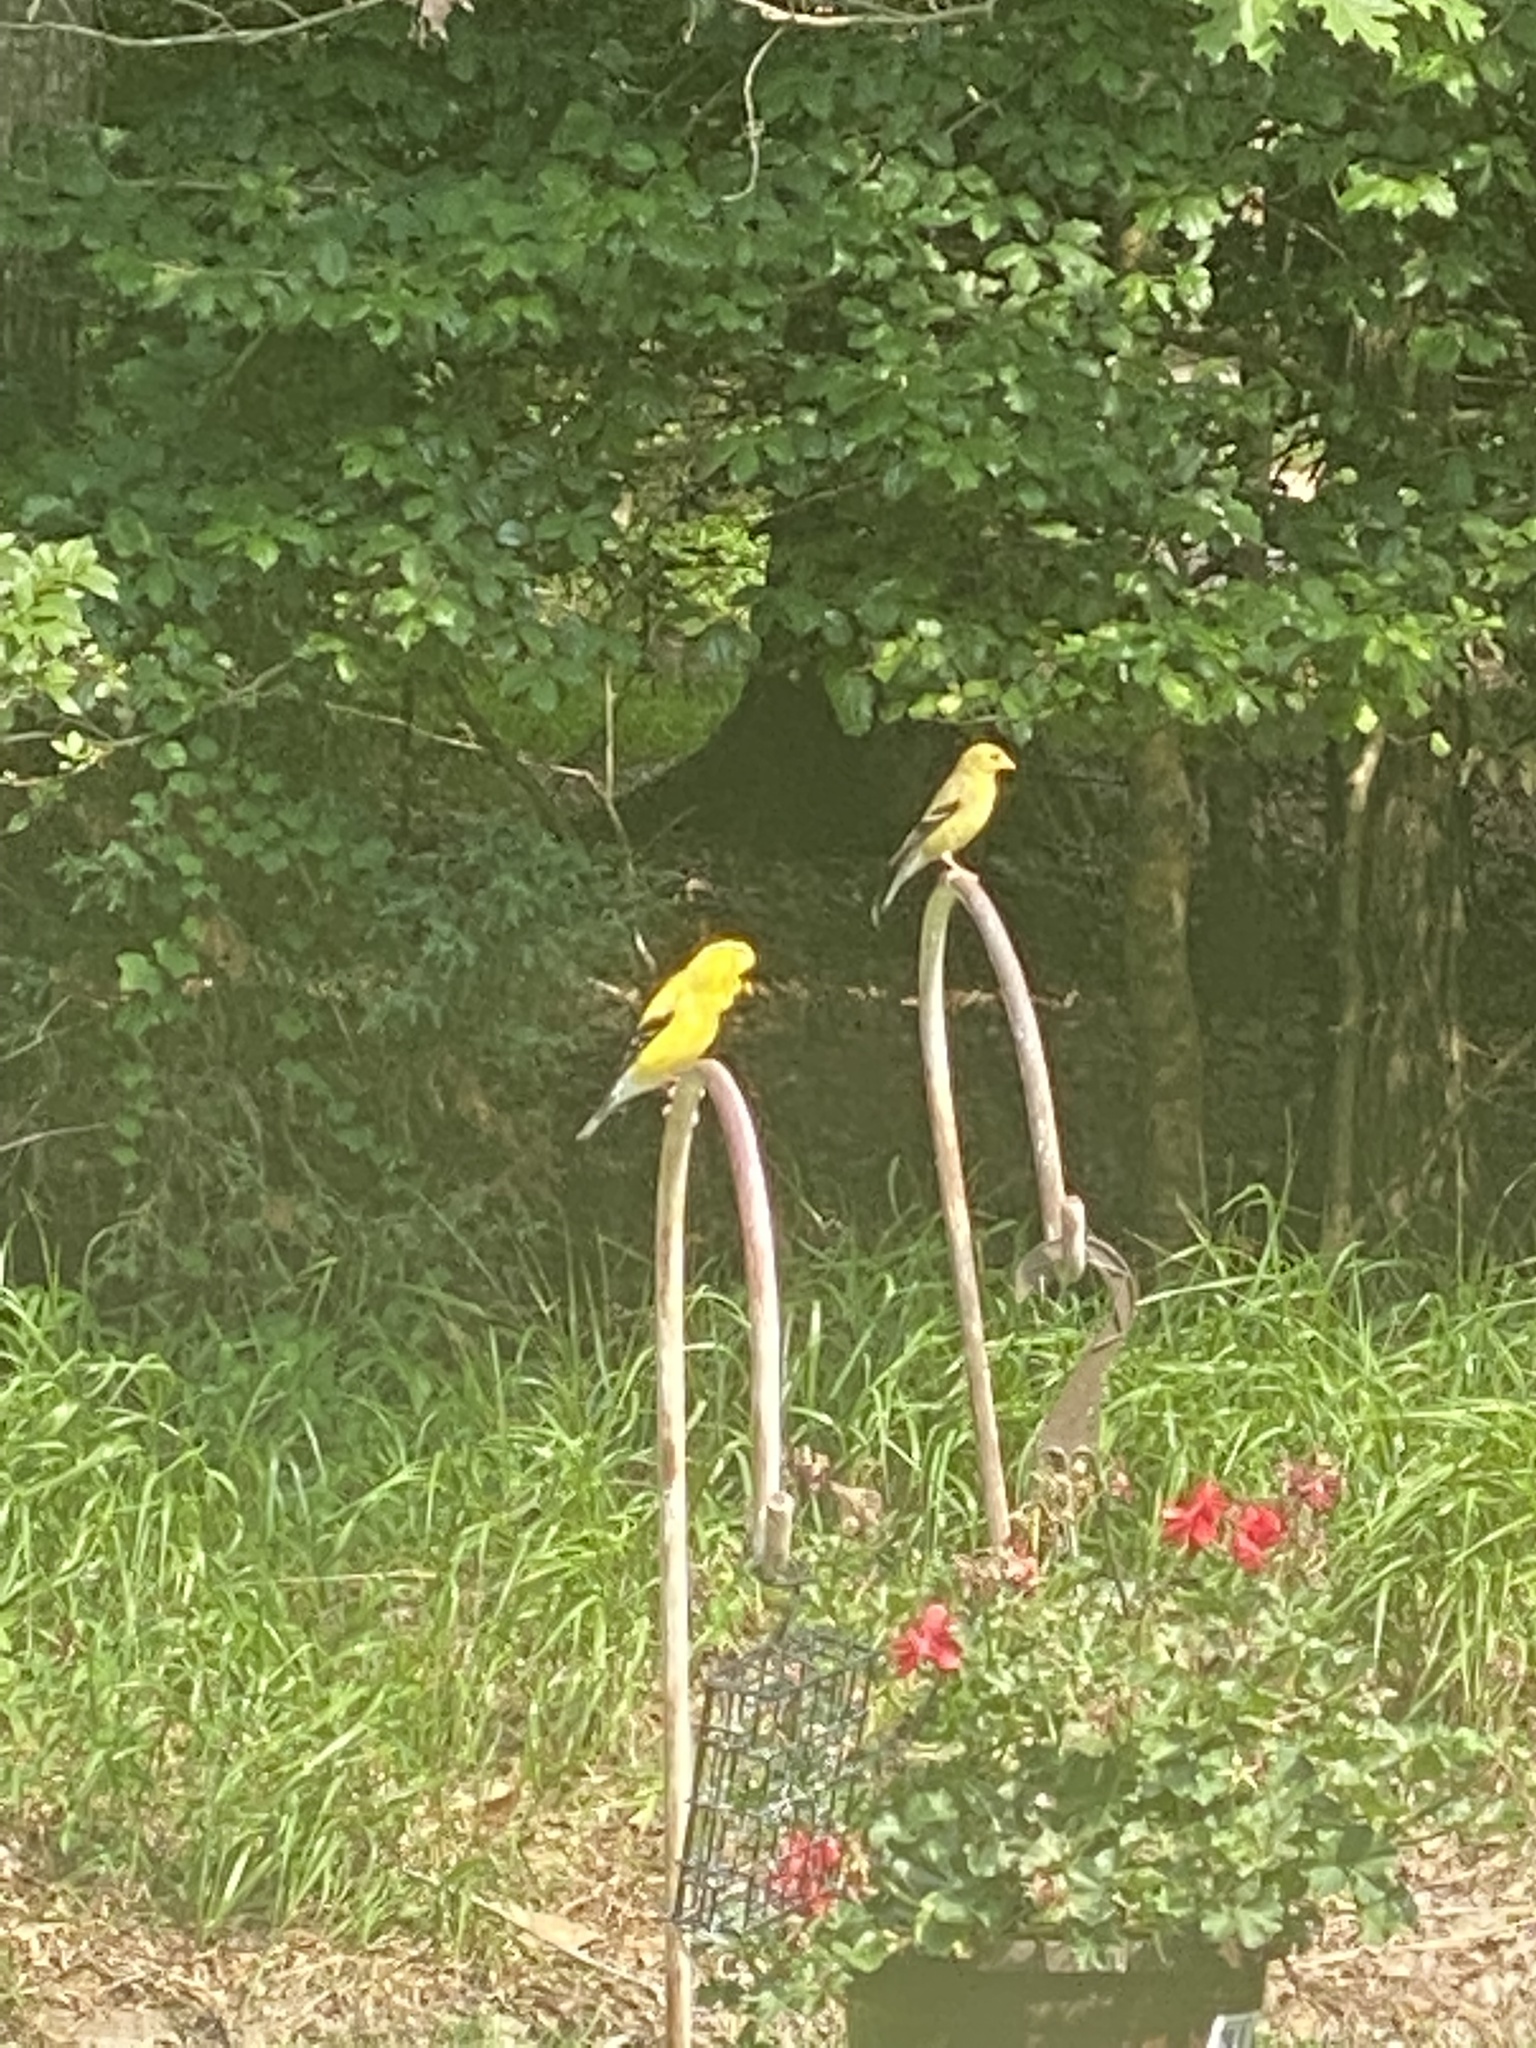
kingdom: Animalia
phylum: Chordata
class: Aves
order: Passeriformes
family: Fringillidae
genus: Spinus
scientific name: Spinus tristis
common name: American goldfinch
